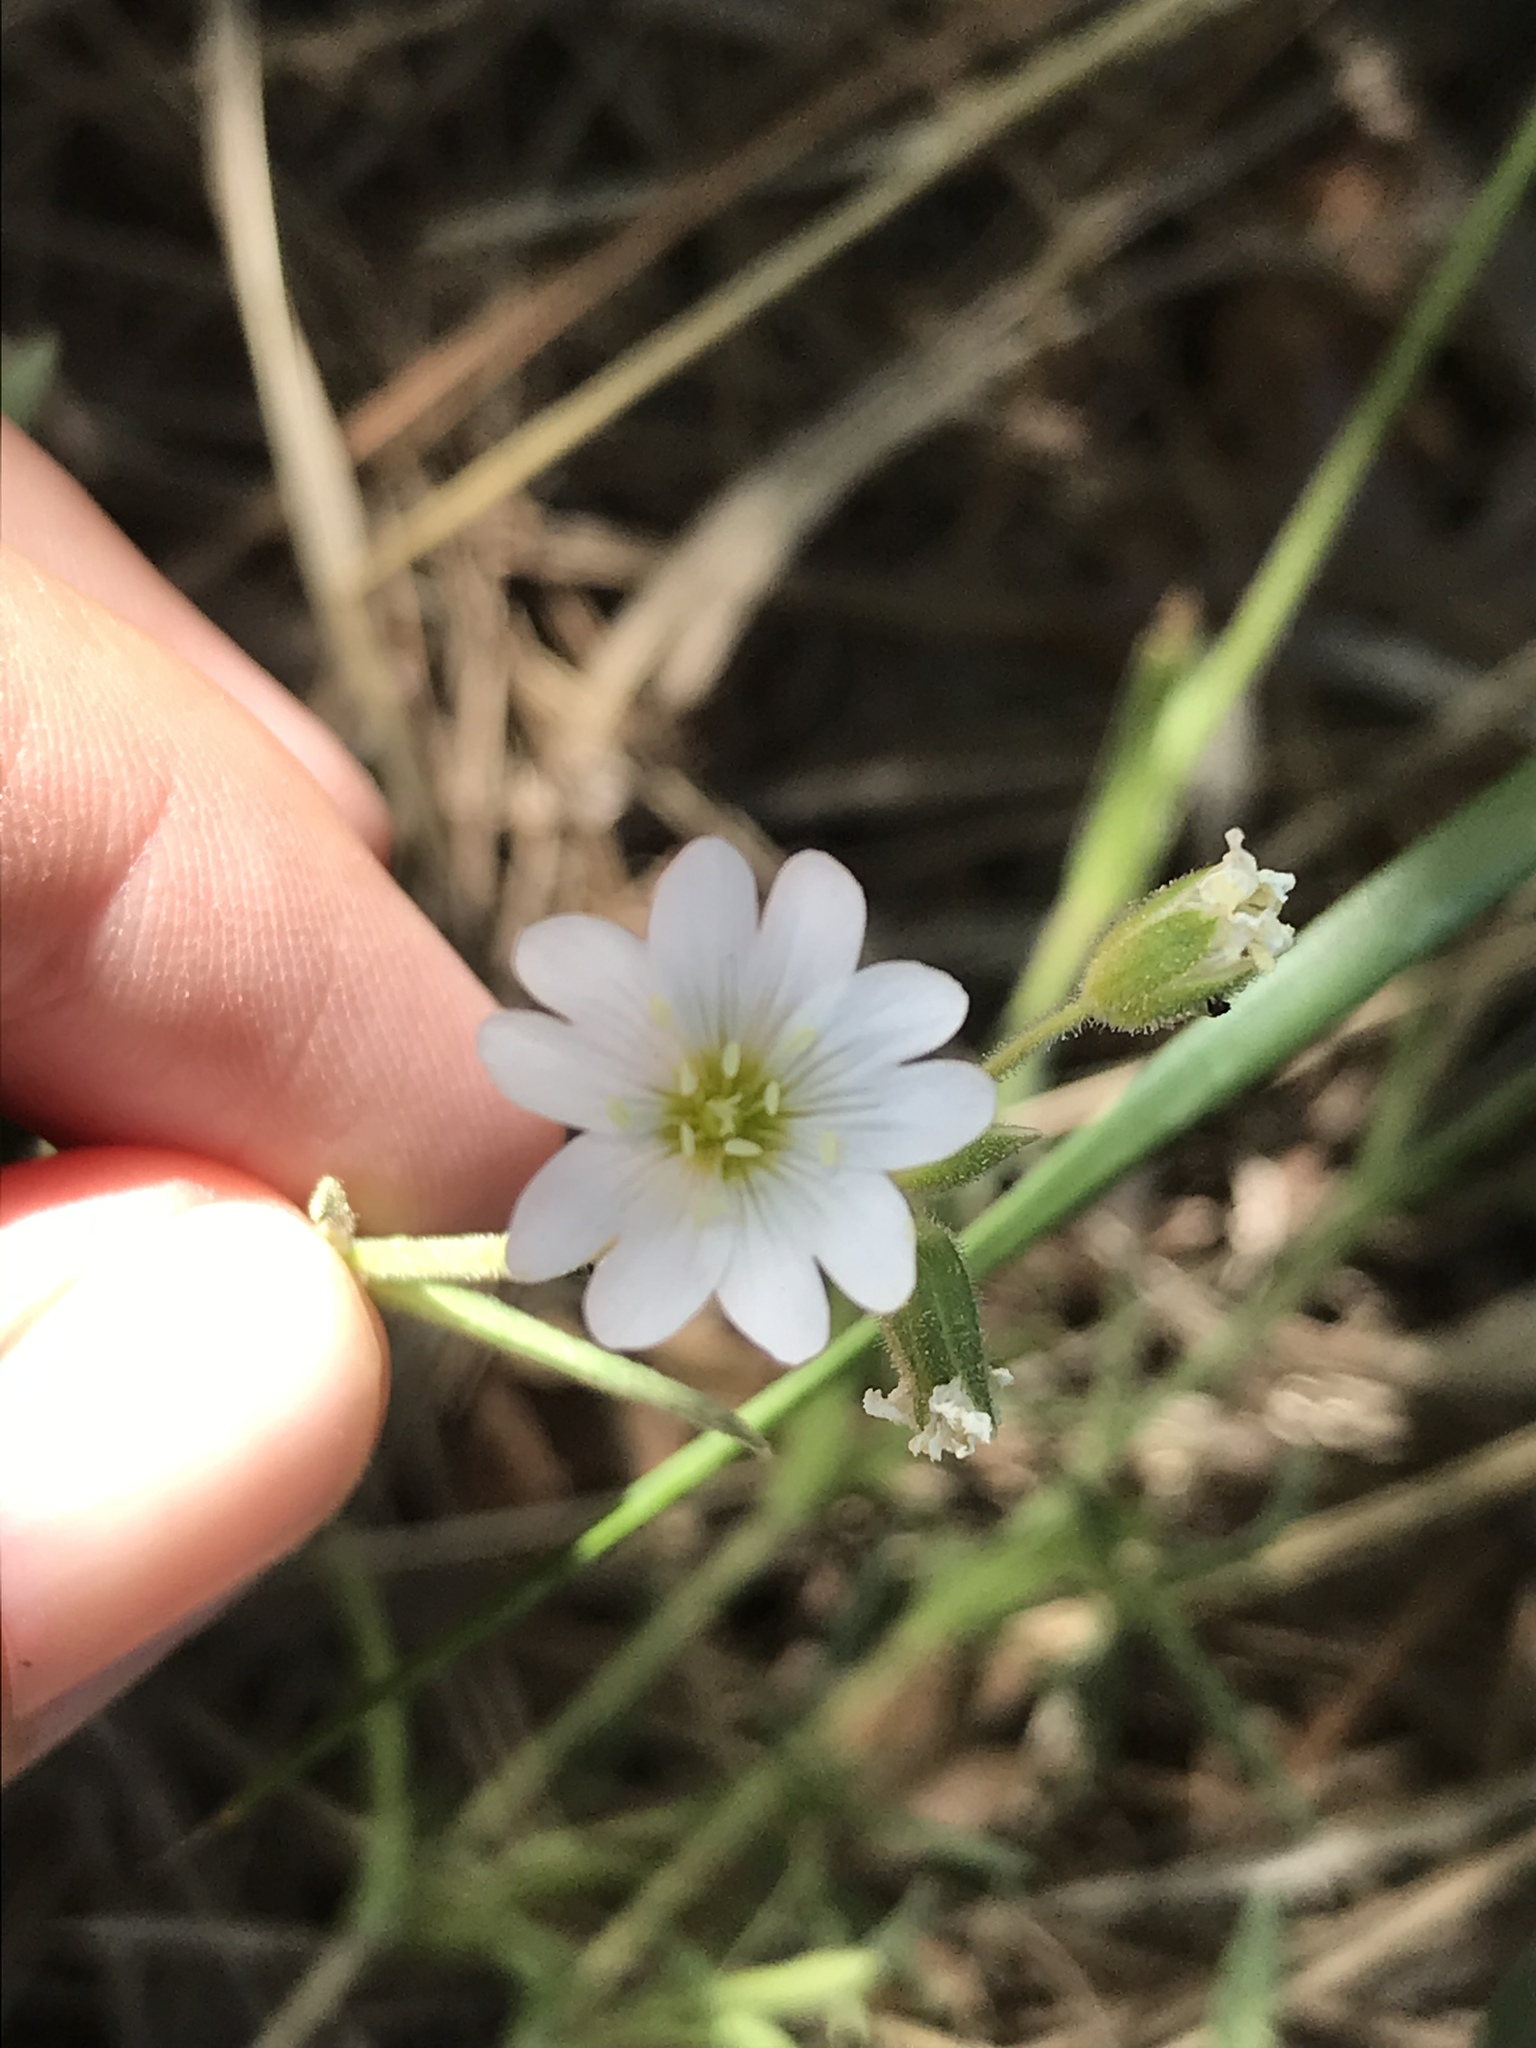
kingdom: Plantae
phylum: Tracheophyta
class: Magnoliopsida
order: Caryophyllales
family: Caryophyllaceae
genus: Cerastium
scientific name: Cerastium arvense
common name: Field mouse-ear
